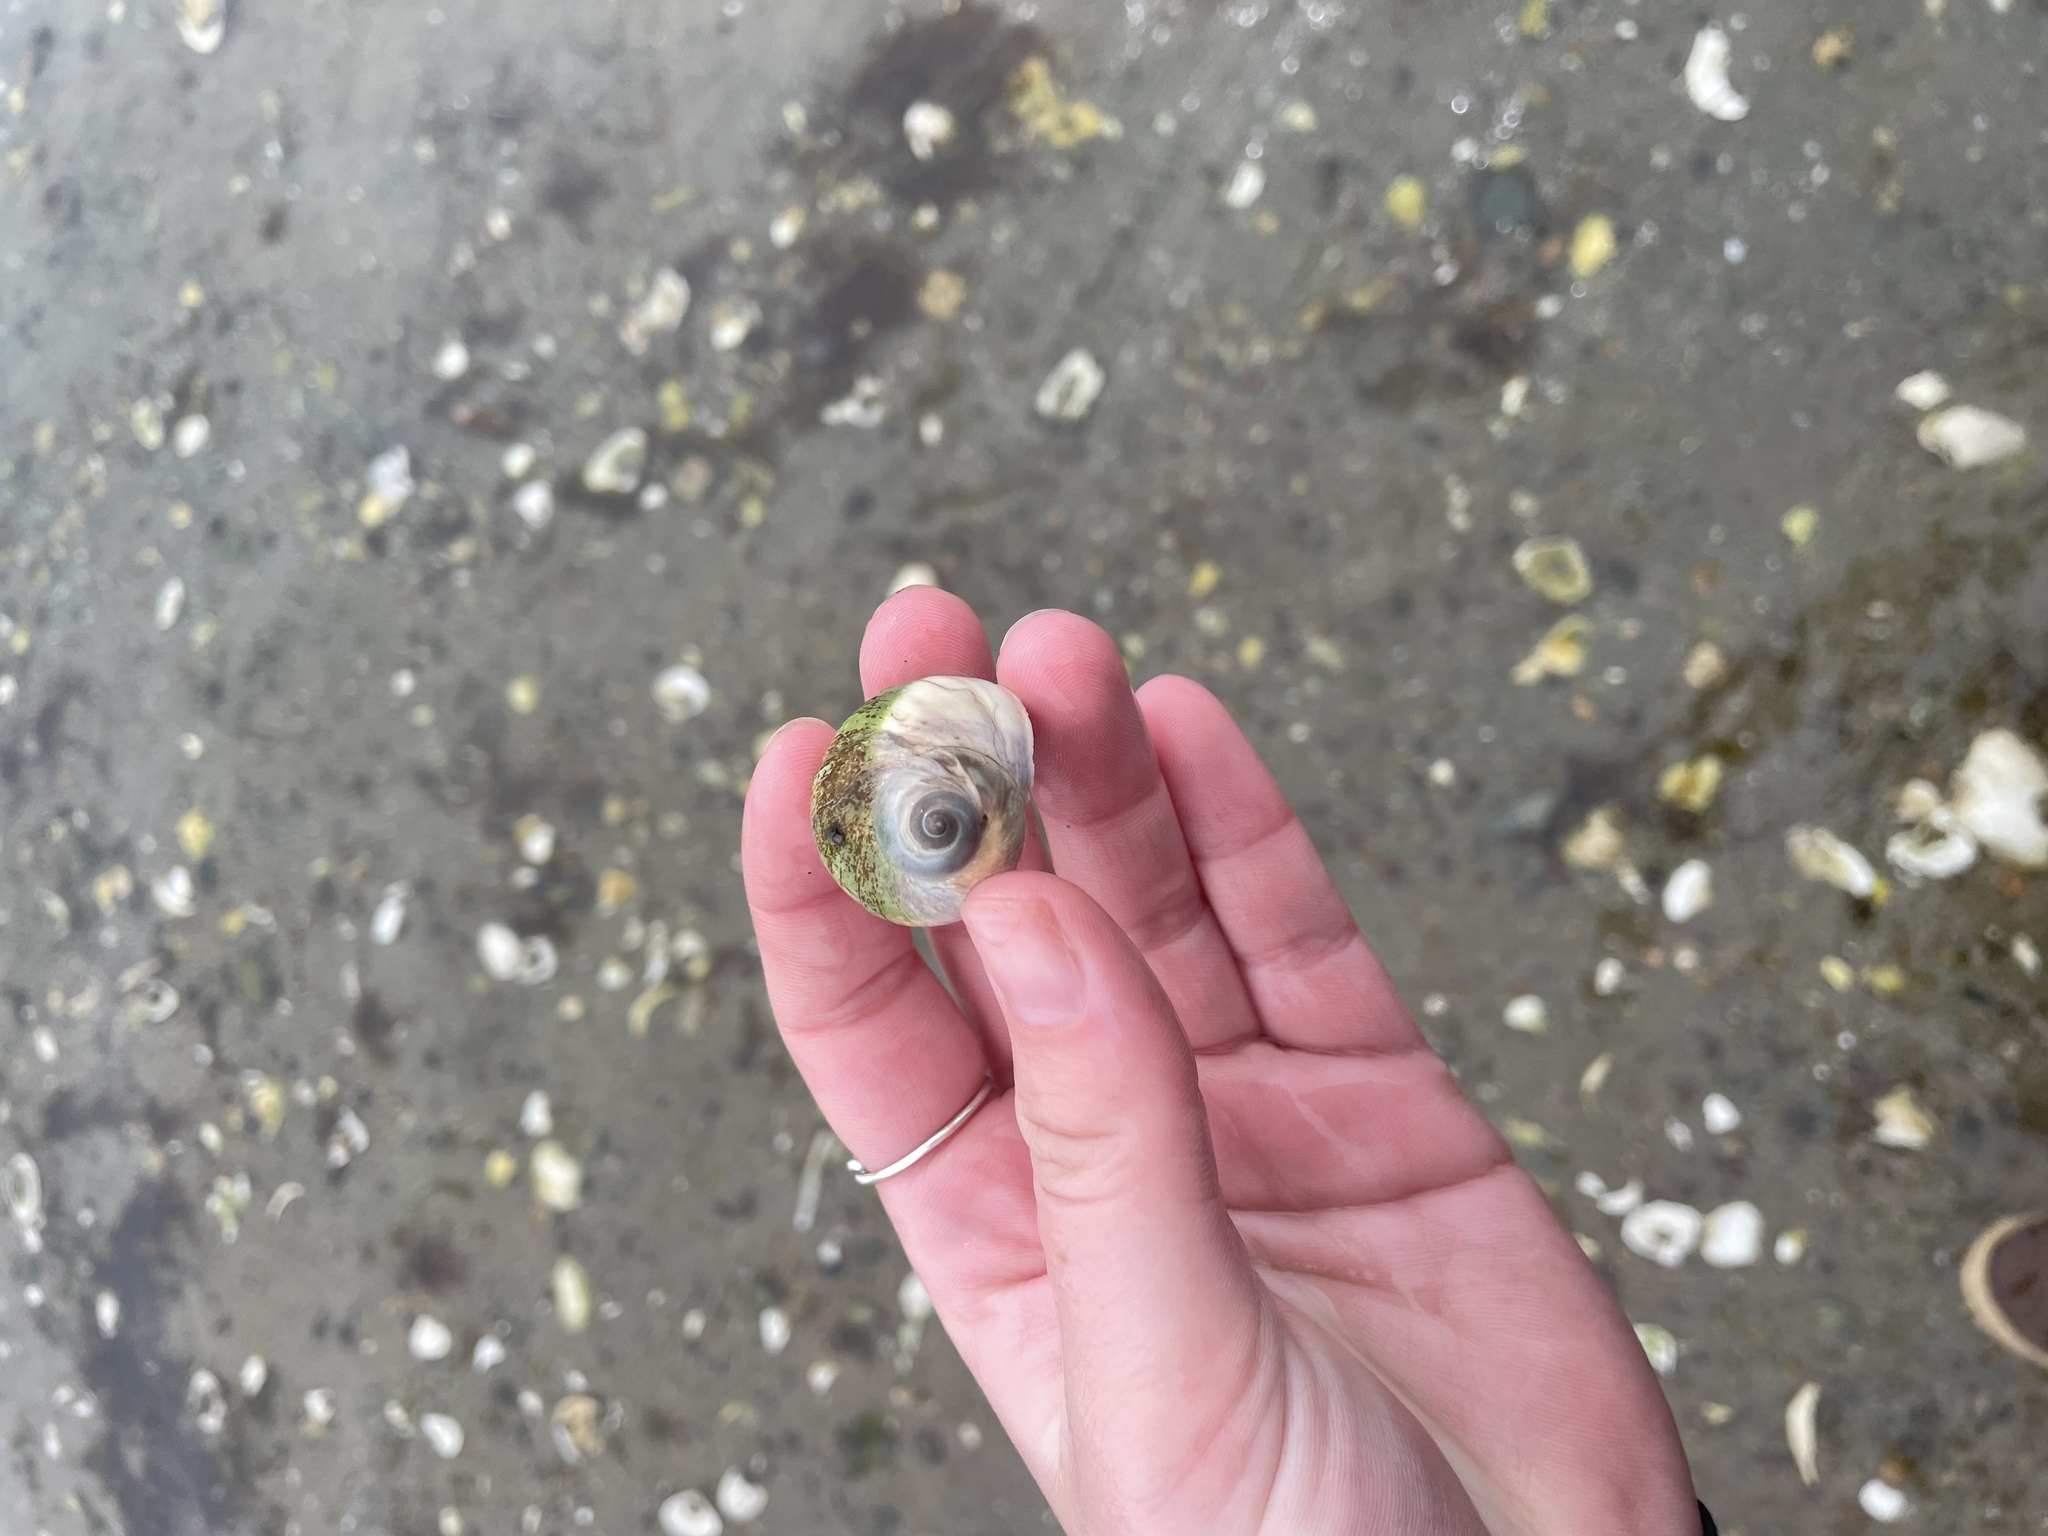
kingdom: Animalia
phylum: Mollusca
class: Gastropoda
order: Littorinimorpha
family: Naticidae
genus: Euspira
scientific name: Euspira heros
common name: Common northern moonsnail
